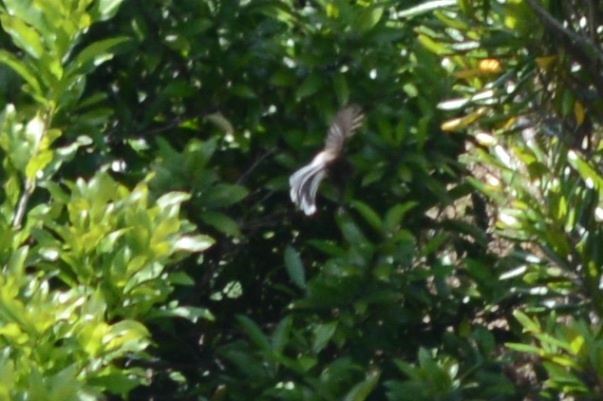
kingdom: Animalia
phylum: Chordata
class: Aves
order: Passeriformes
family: Rhipiduridae
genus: Rhipidura
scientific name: Rhipidura fuliginosa
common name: New zealand fantail
